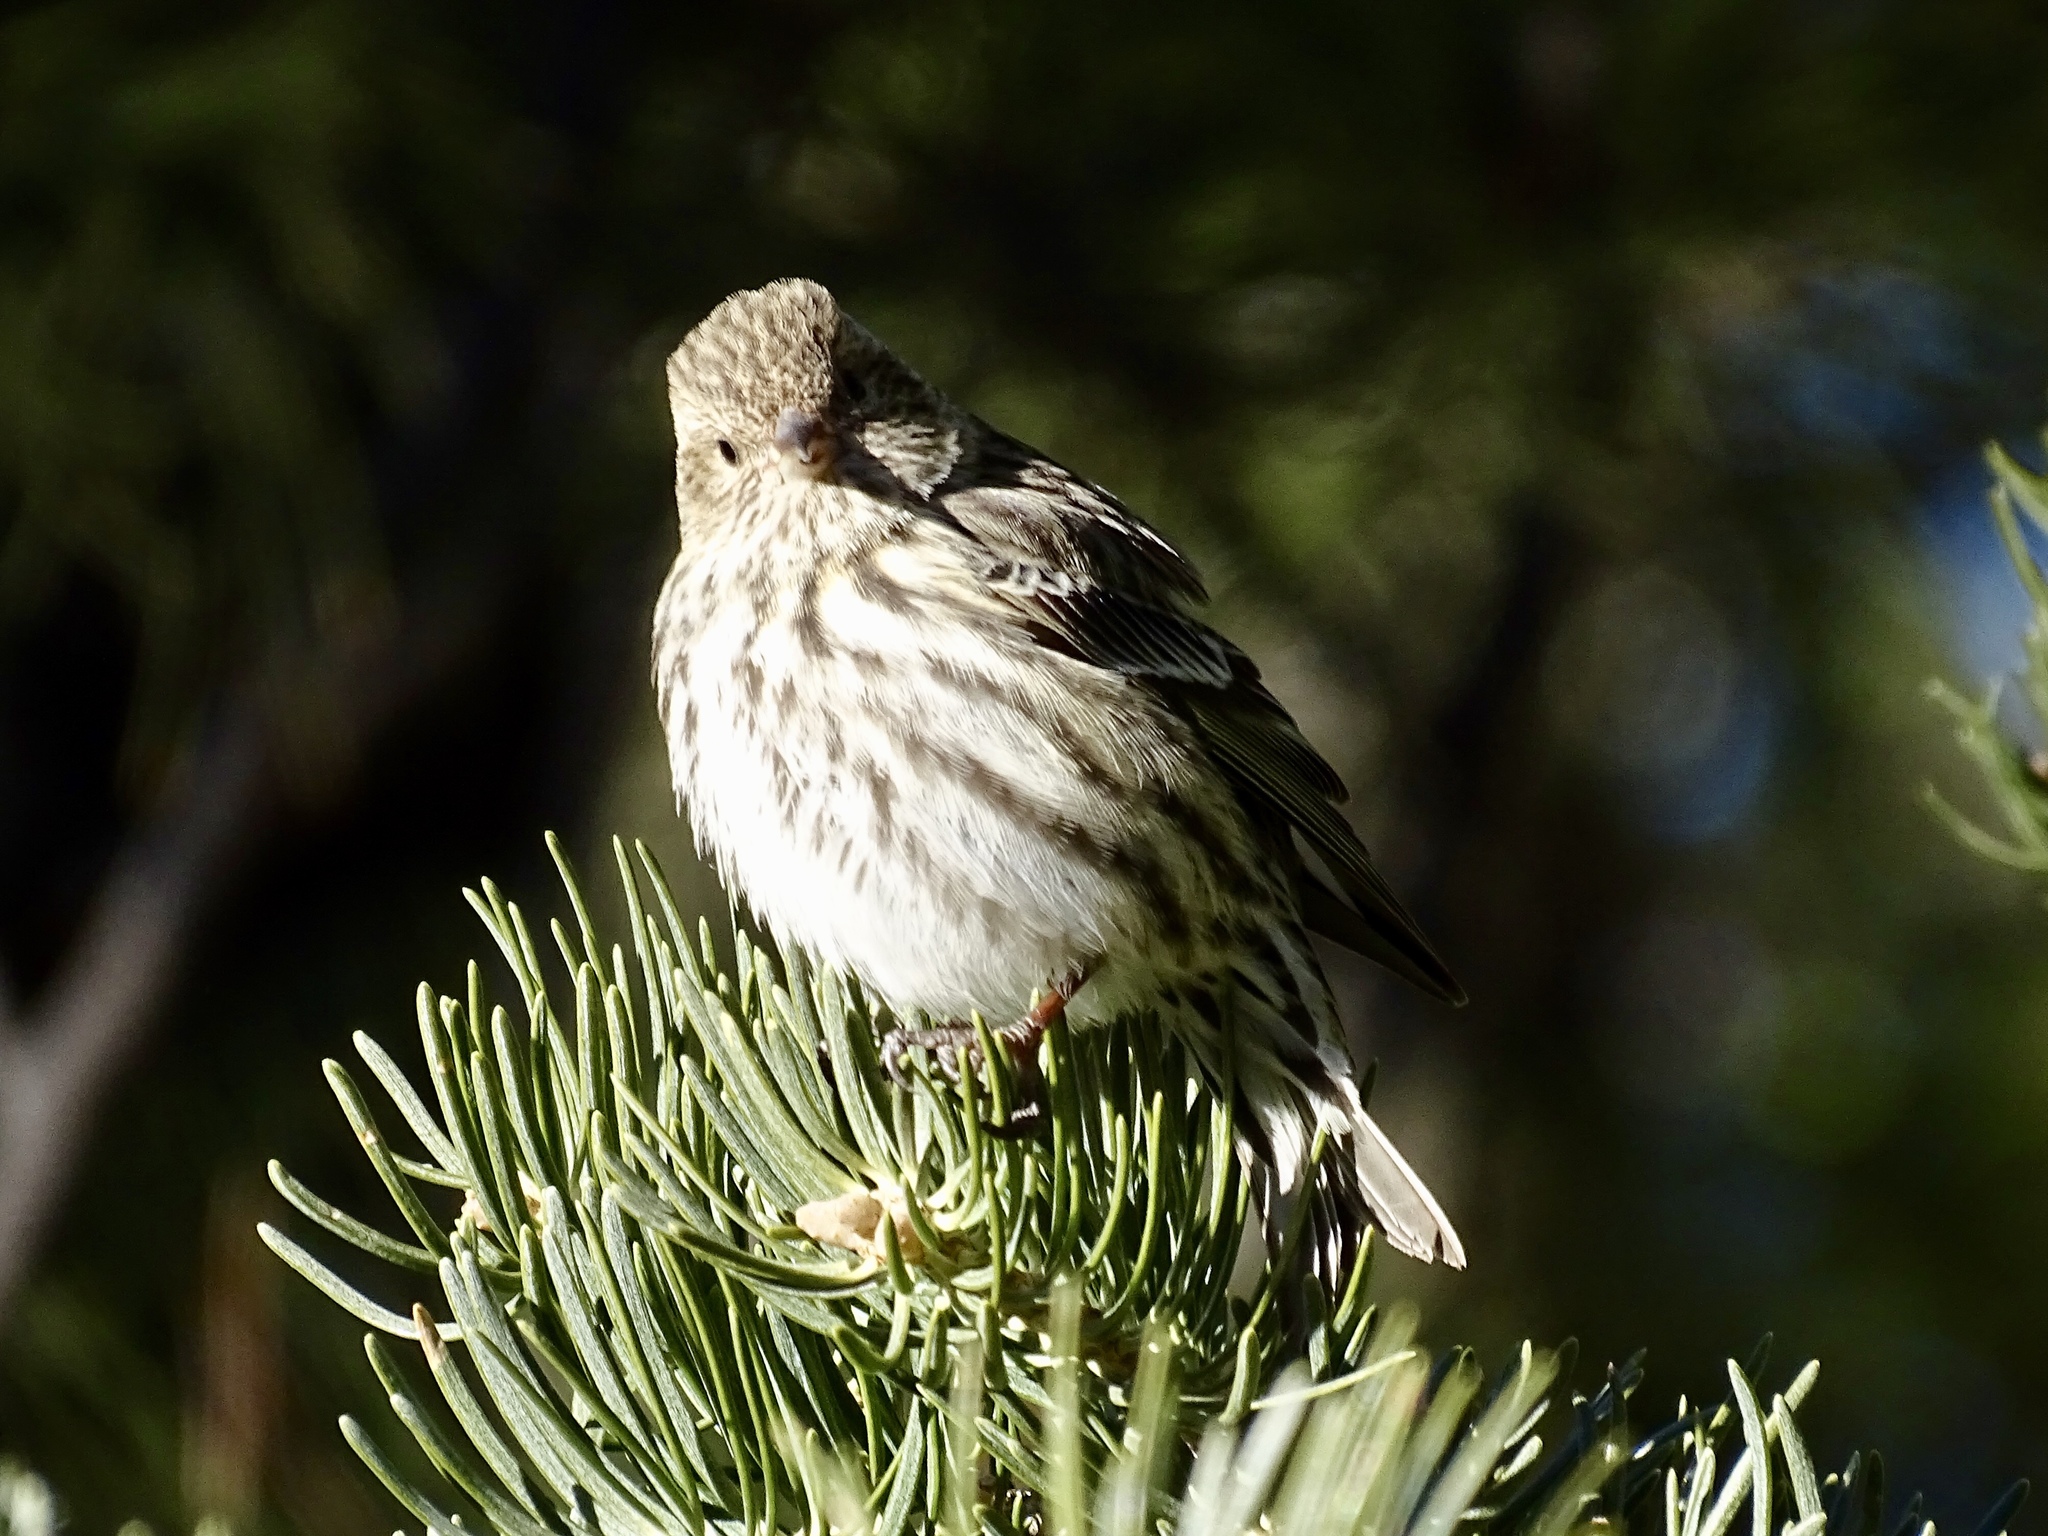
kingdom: Animalia
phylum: Chordata
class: Aves
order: Passeriformes
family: Fringillidae
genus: Spinus
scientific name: Spinus pinus
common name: Pine siskin
